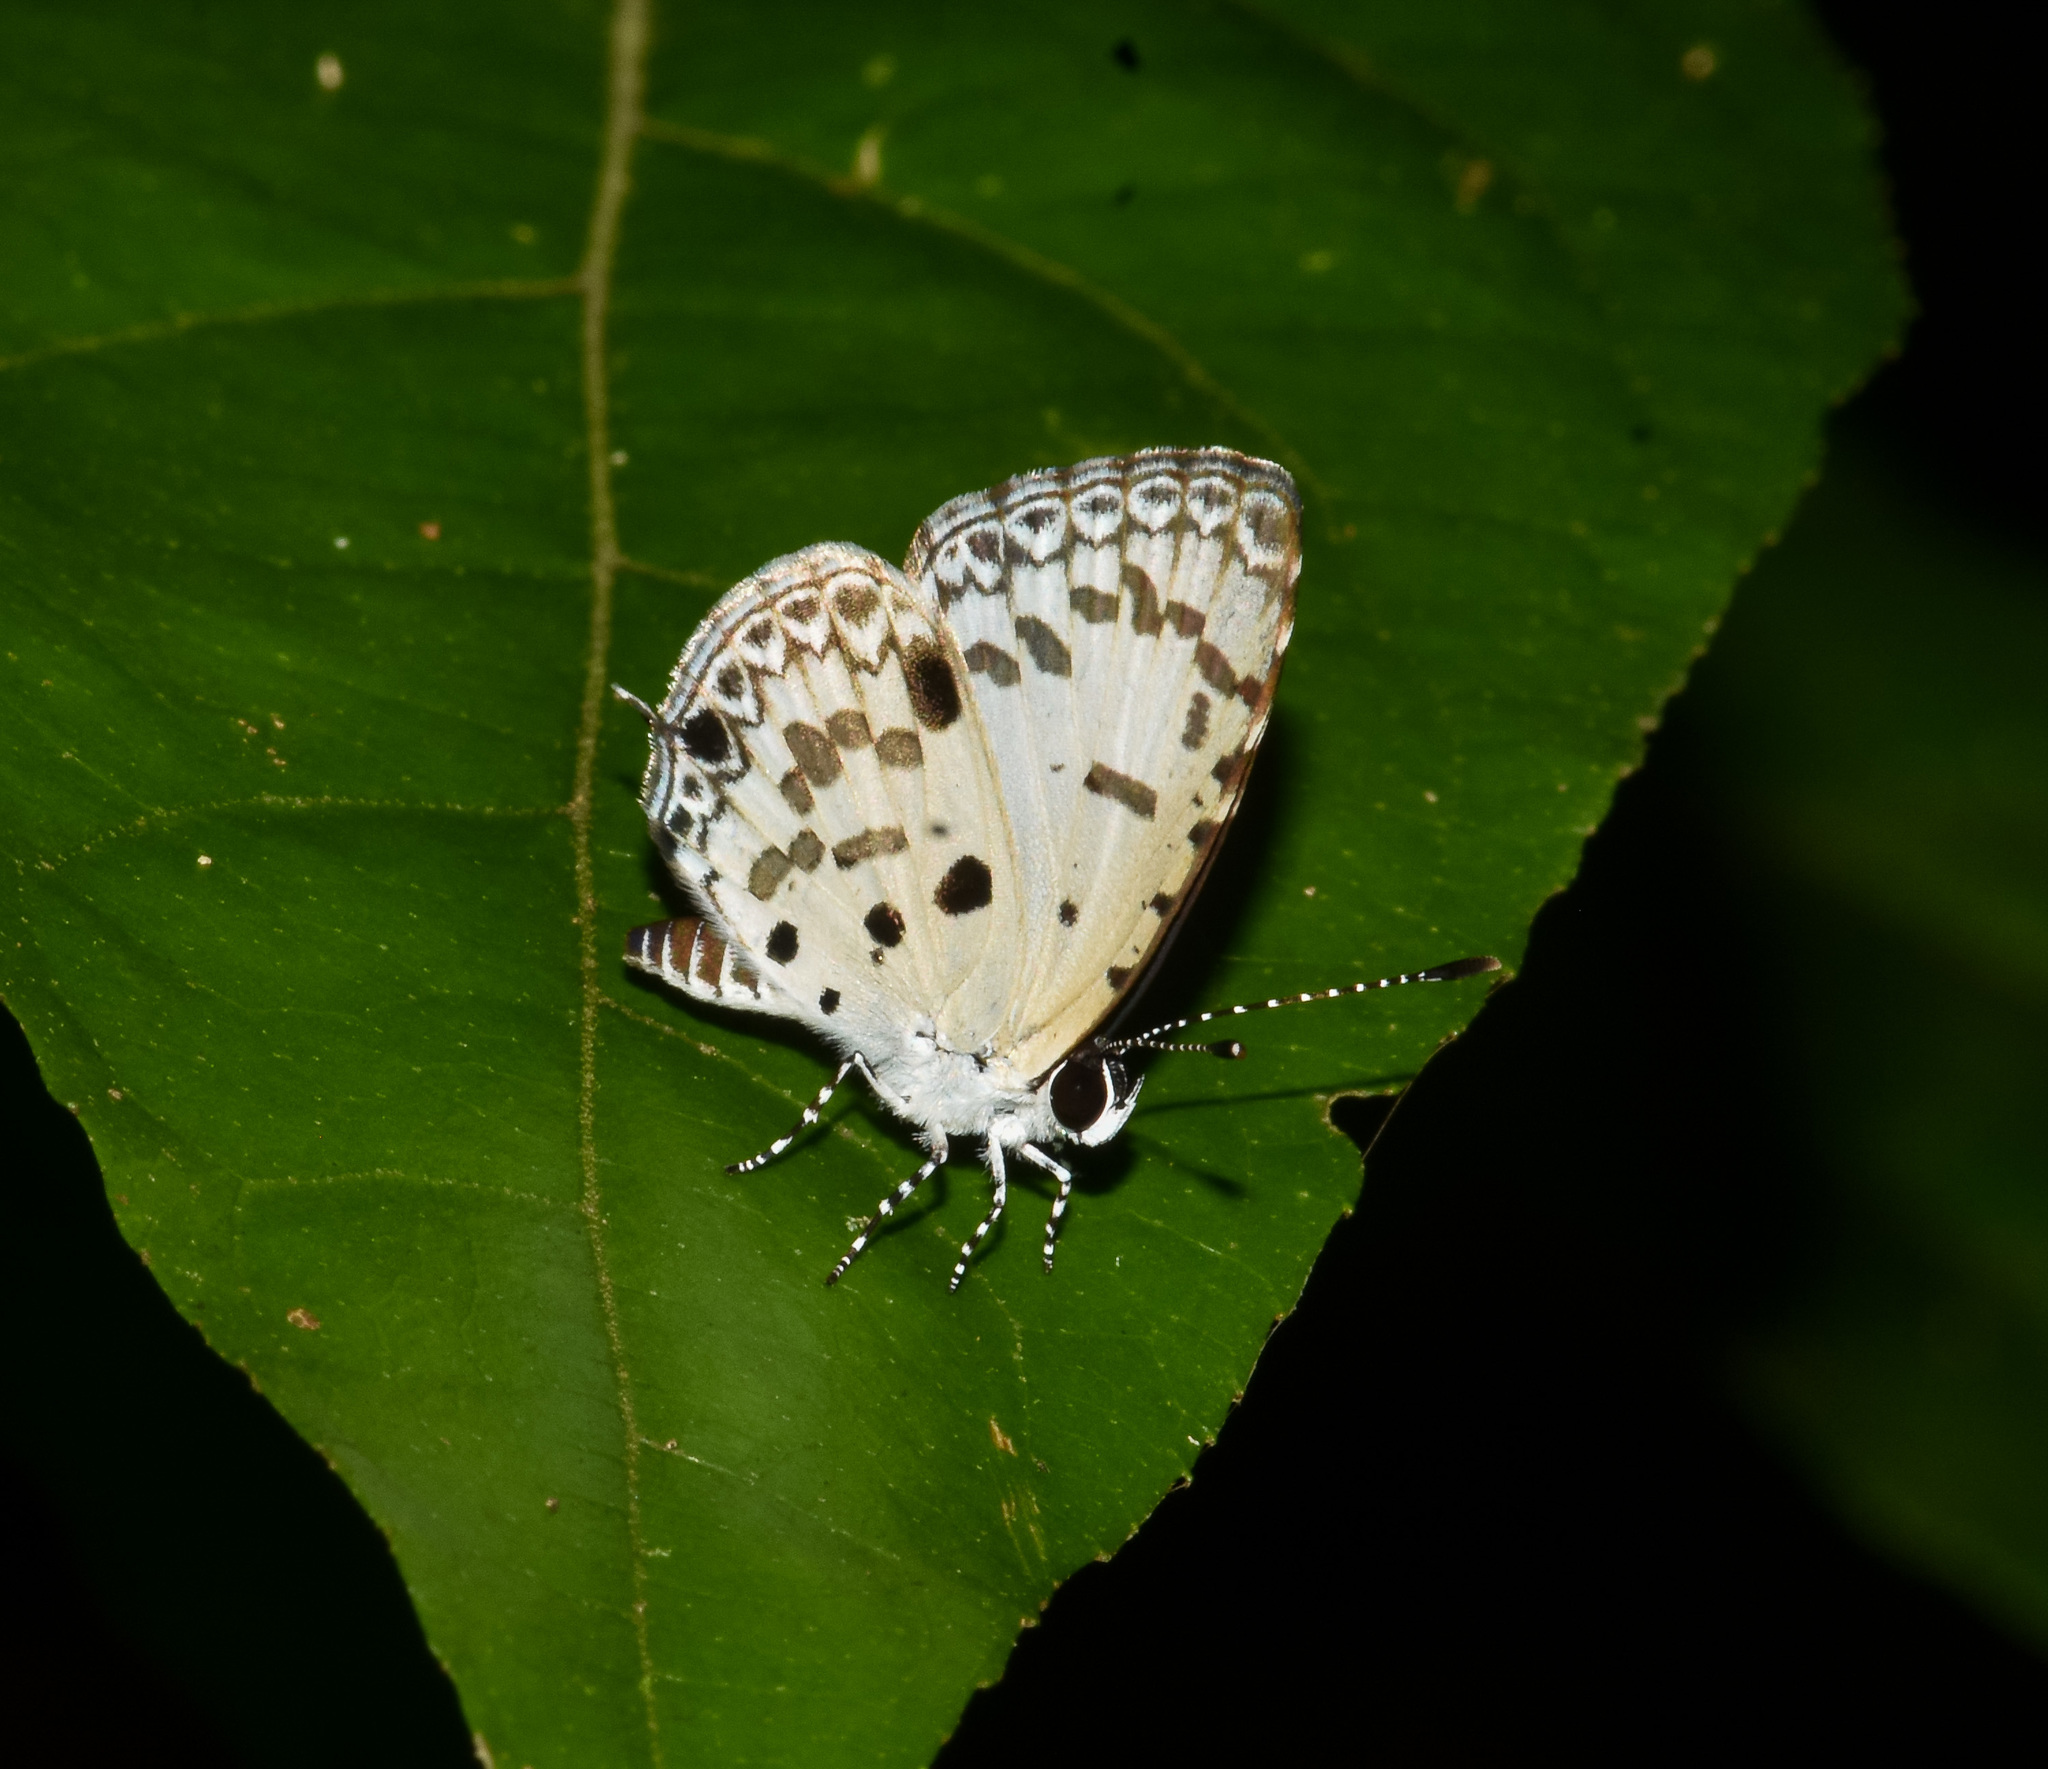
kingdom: Animalia
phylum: Arthropoda
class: Insecta
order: Lepidoptera
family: Lycaenidae
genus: Megisba
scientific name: Megisba malaya
